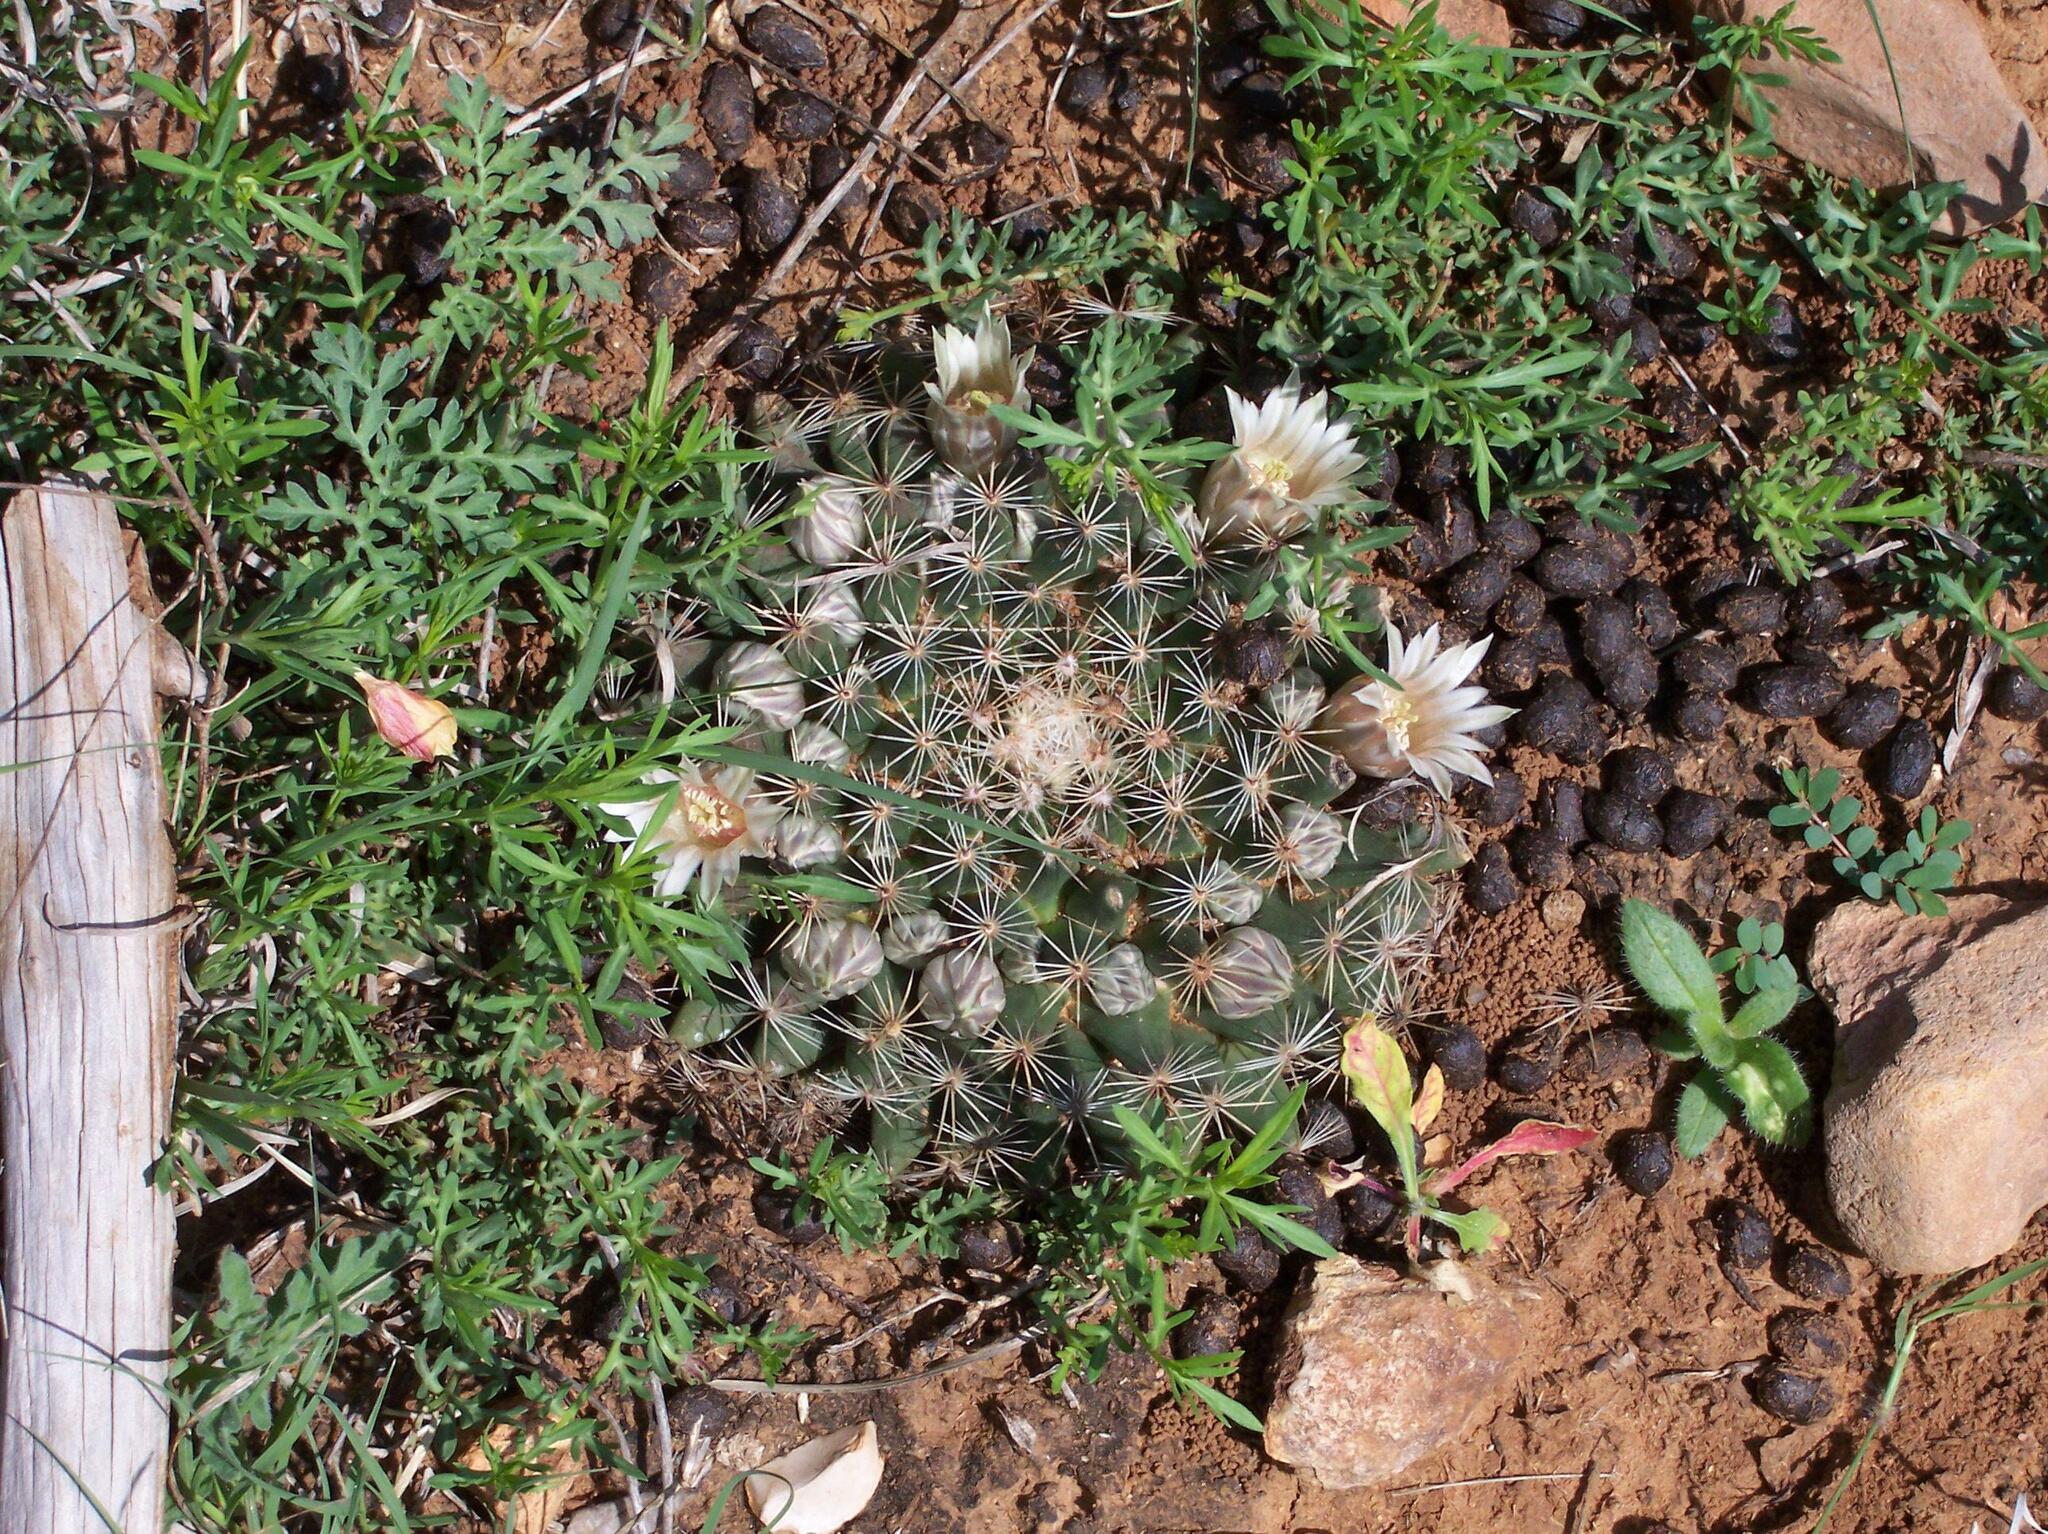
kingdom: Plantae
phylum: Tracheophyta
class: Magnoliopsida
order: Caryophyllales
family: Cactaceae
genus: Mammillaria
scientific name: Mammillaria heyderi
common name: Little nipple cactus
